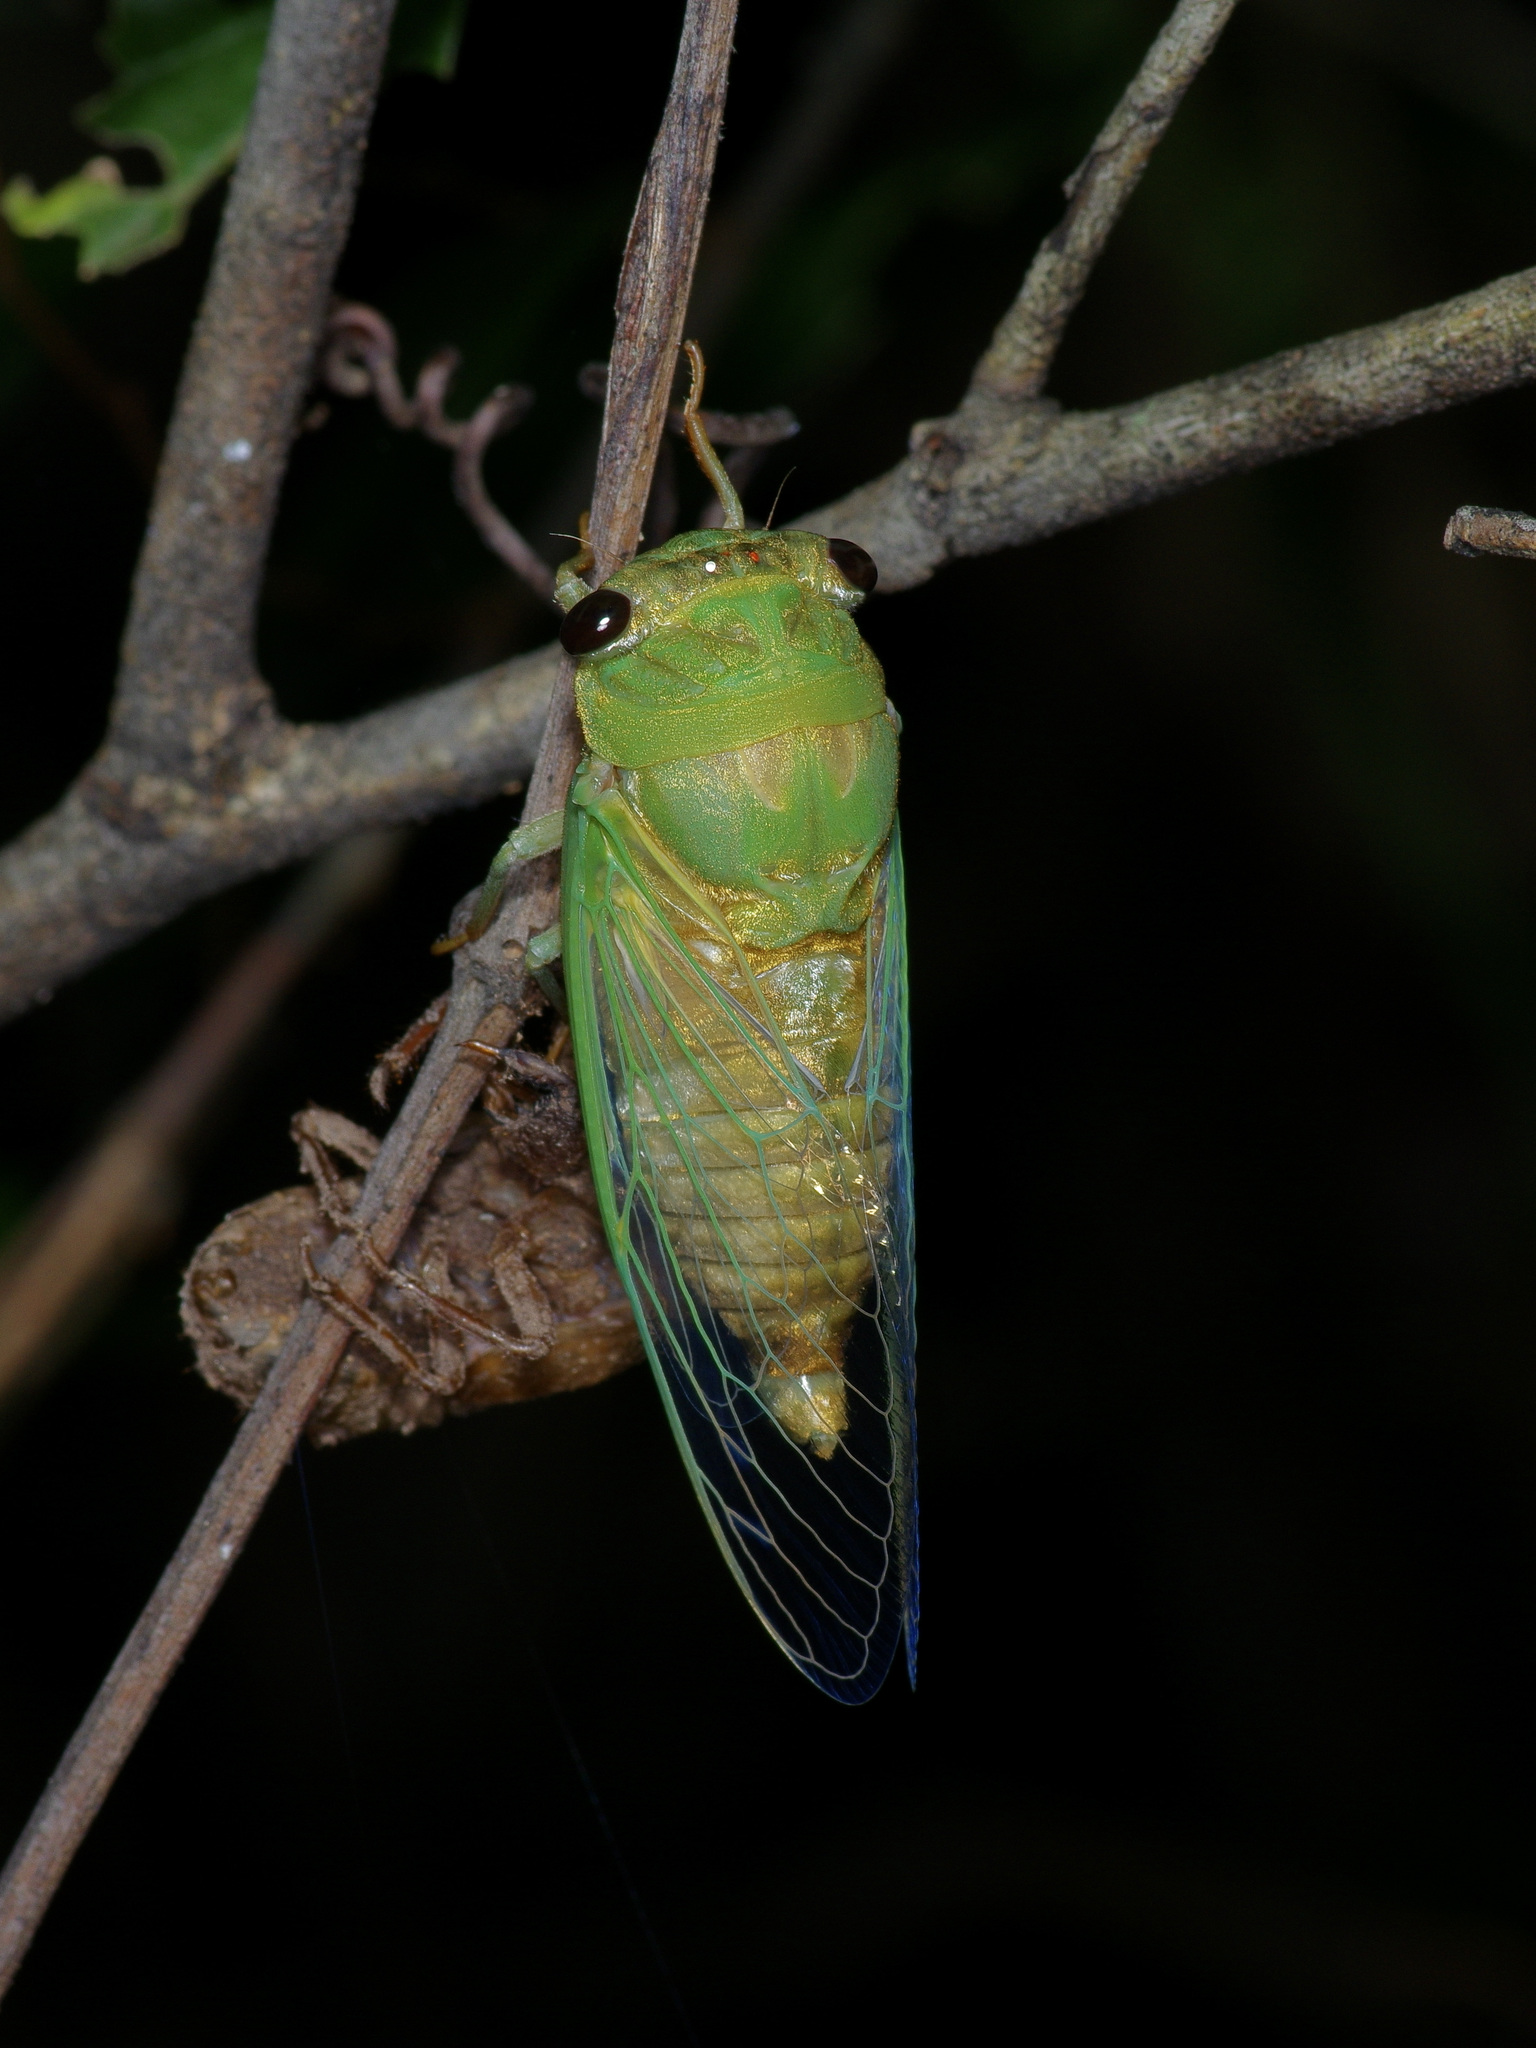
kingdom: Animalia
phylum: Arthropoda
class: Insecta
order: Hemiptera
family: Cicadidae
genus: Neotibicen
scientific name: Neotibicen superbus
